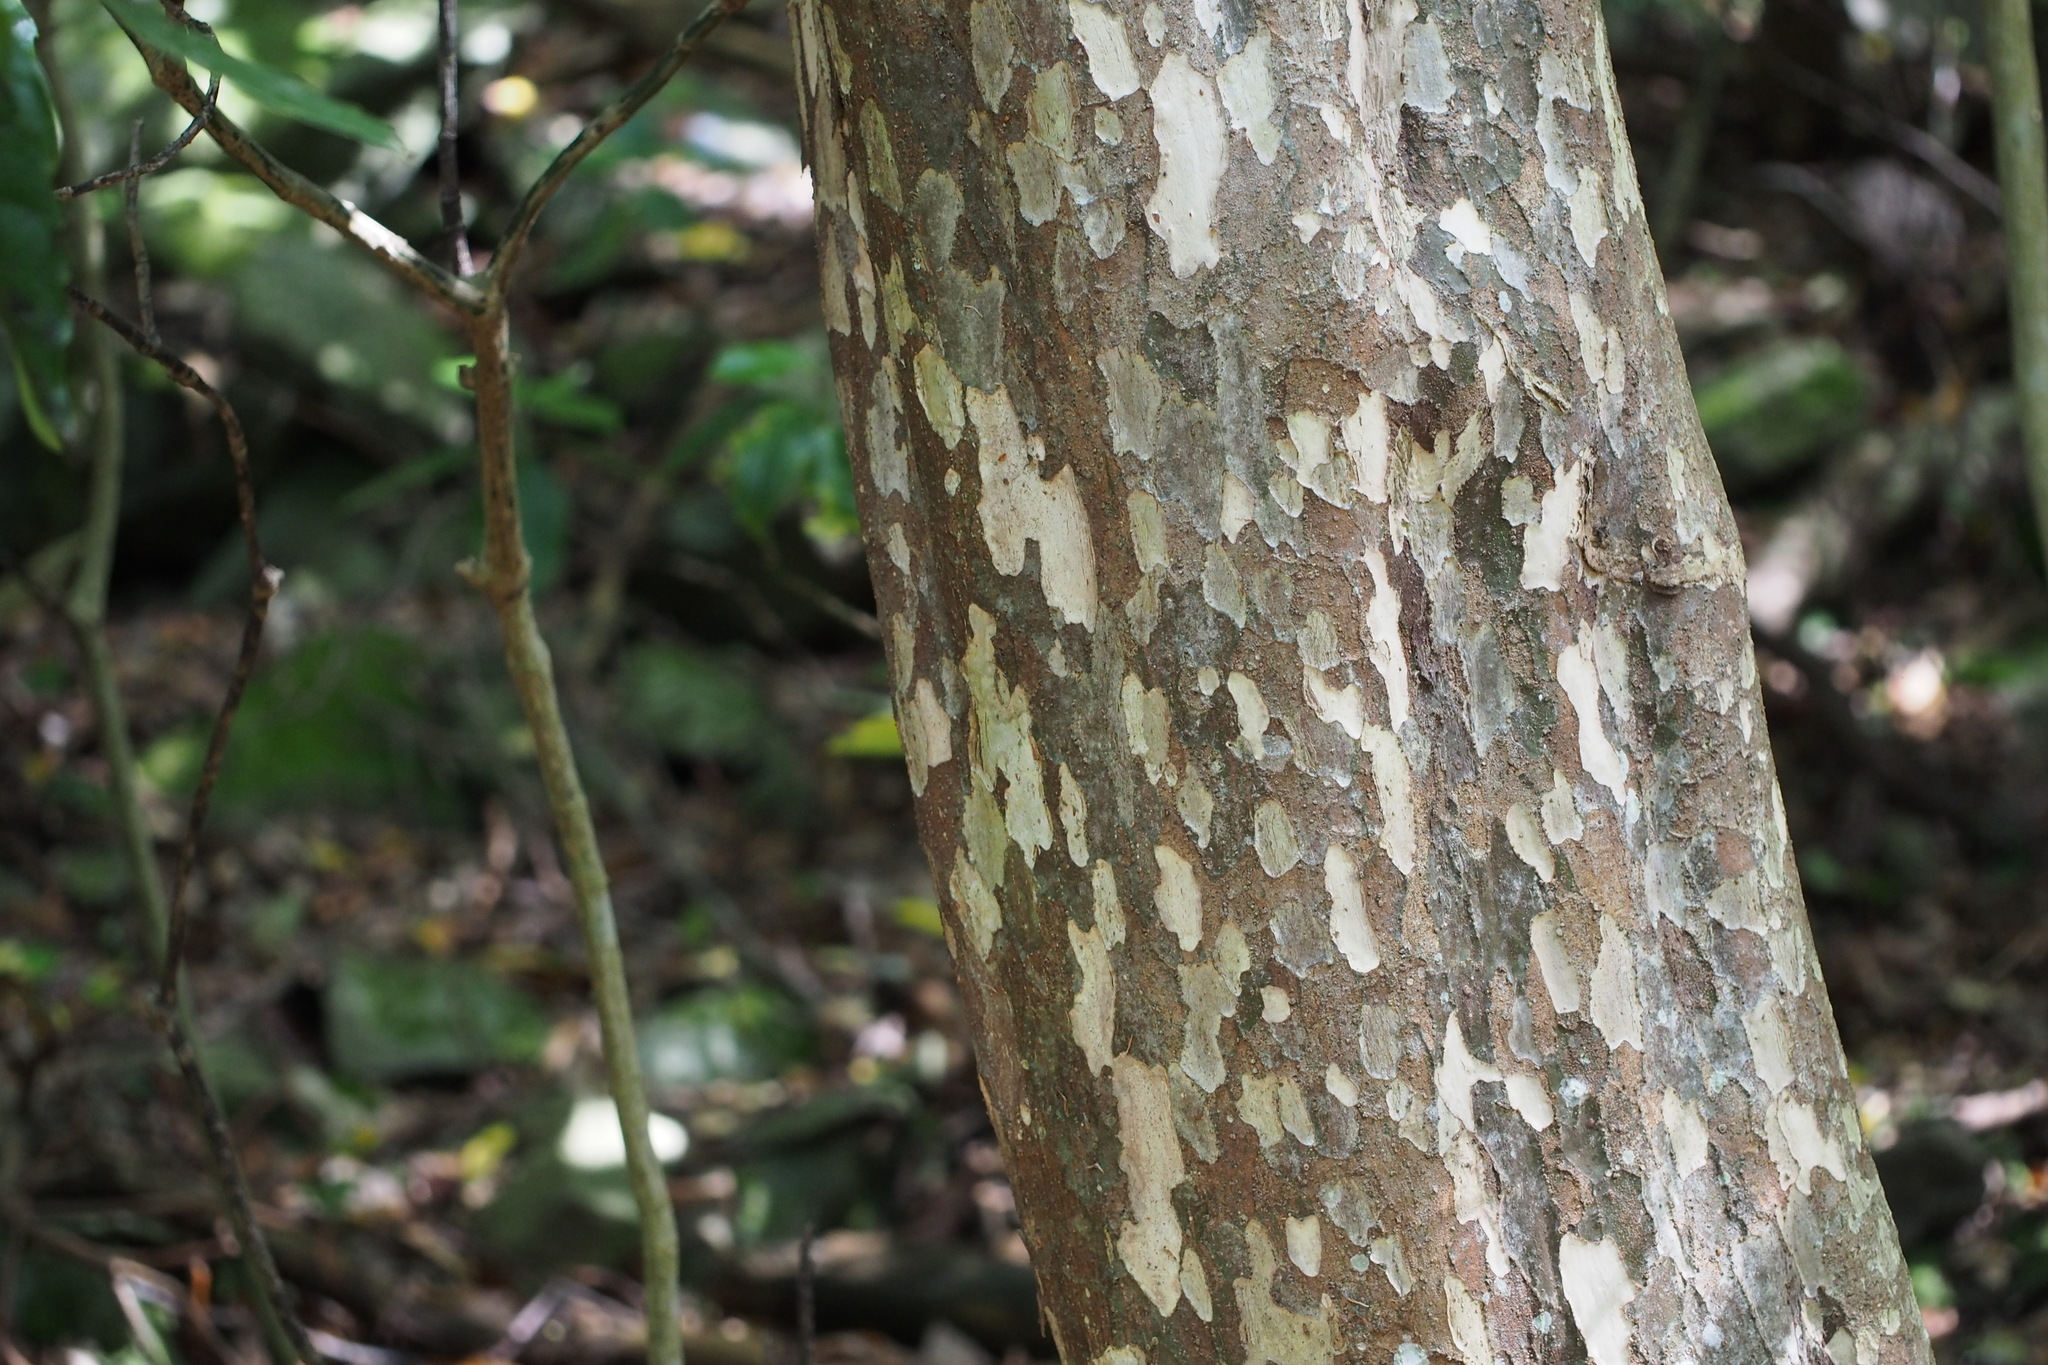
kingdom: Plantae
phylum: Tracheophyta
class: Magnoliopsida
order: Laurales
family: Lauraceae
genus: Litsea
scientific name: Litsea coreana
